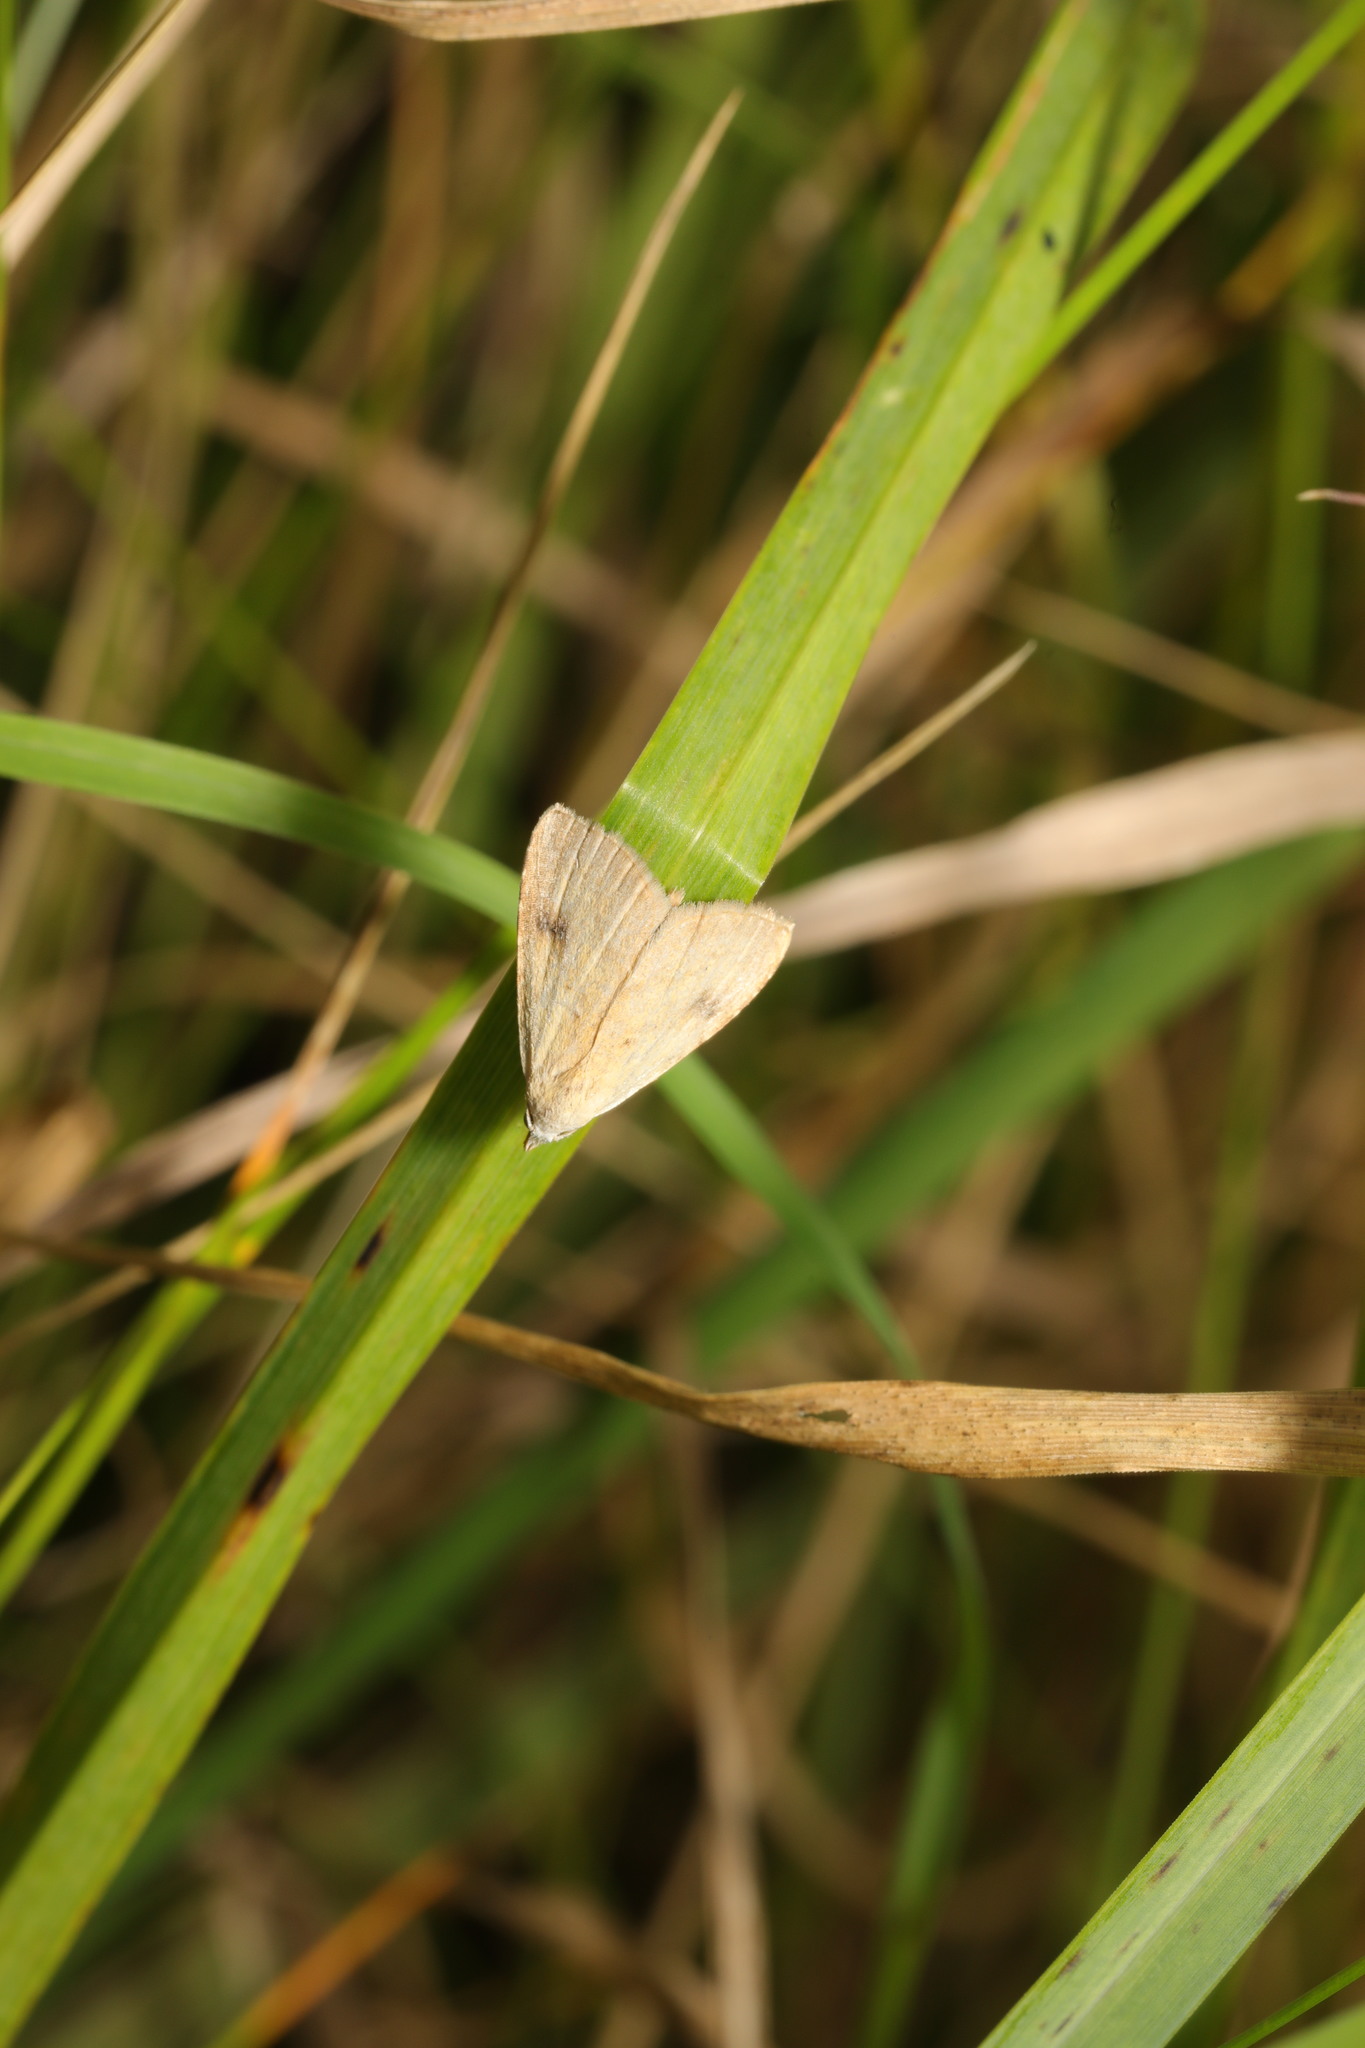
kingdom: Animalia
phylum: Arthropoda
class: Insecta
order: Lepidoptera
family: Erebidae
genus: Rivula
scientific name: Rivula sericealis
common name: Straw dot
